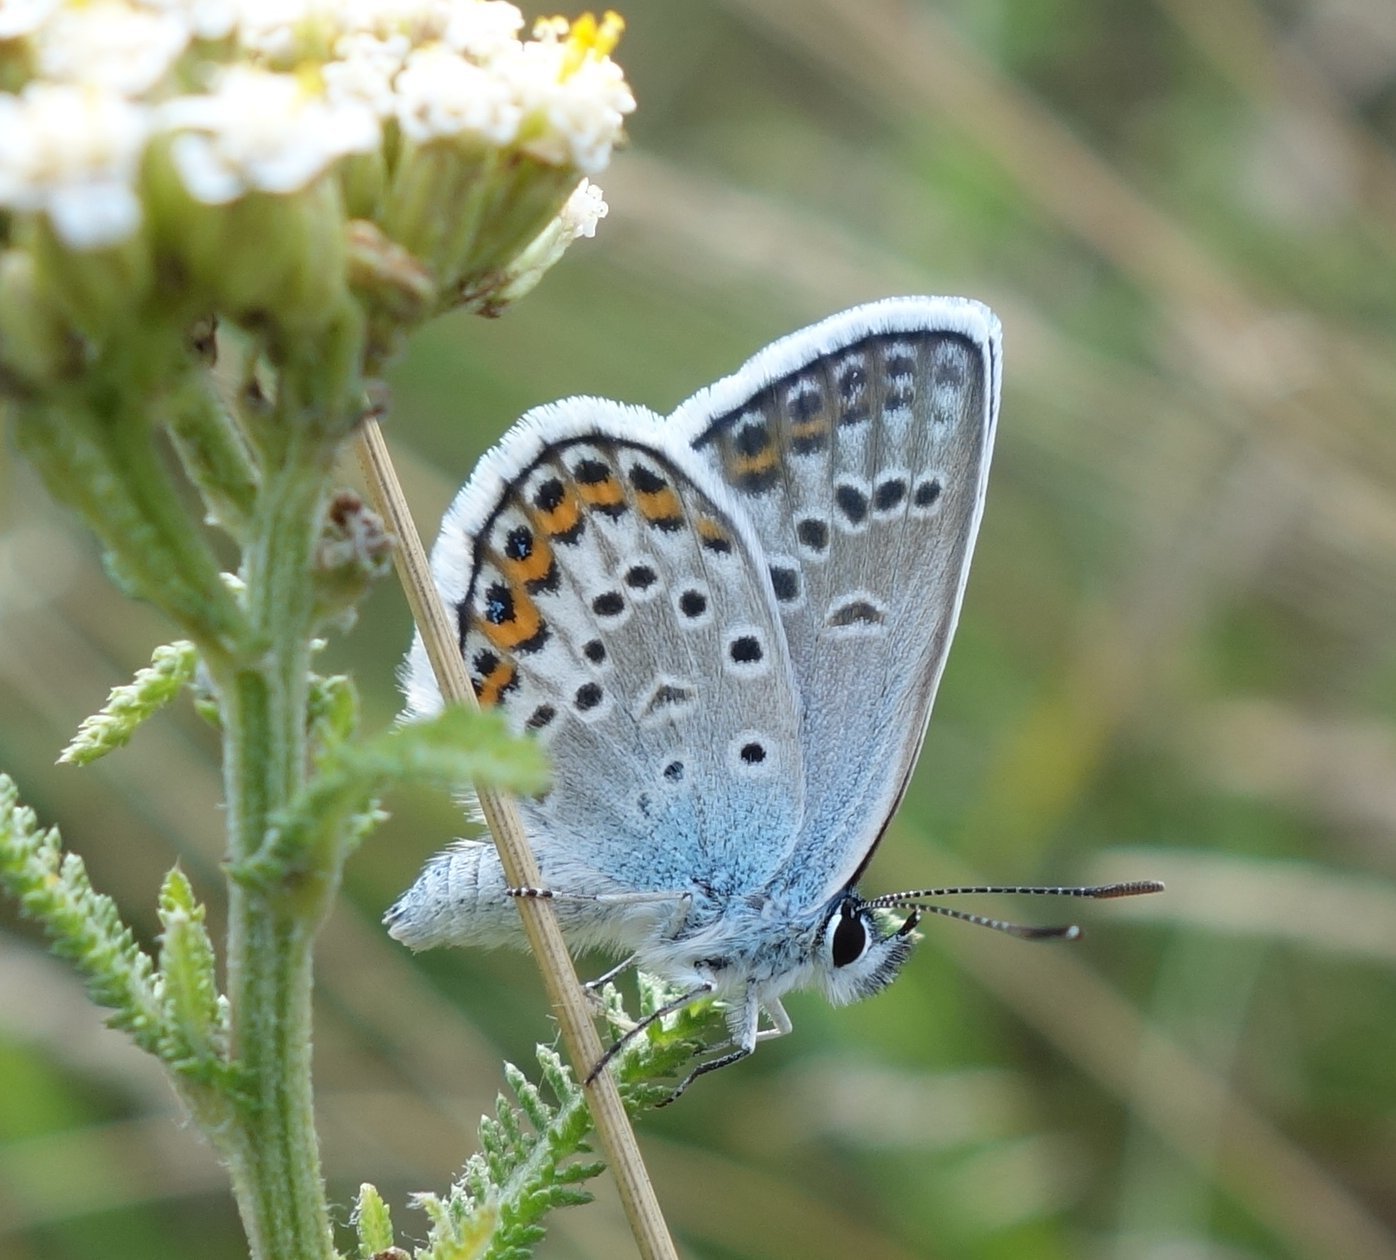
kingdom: Animalia
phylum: Arthropoda
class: Insecta
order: Lepidoptera
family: Lycaenidae
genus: Plebejus
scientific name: Plebejus argus
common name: Silver-studded blue
